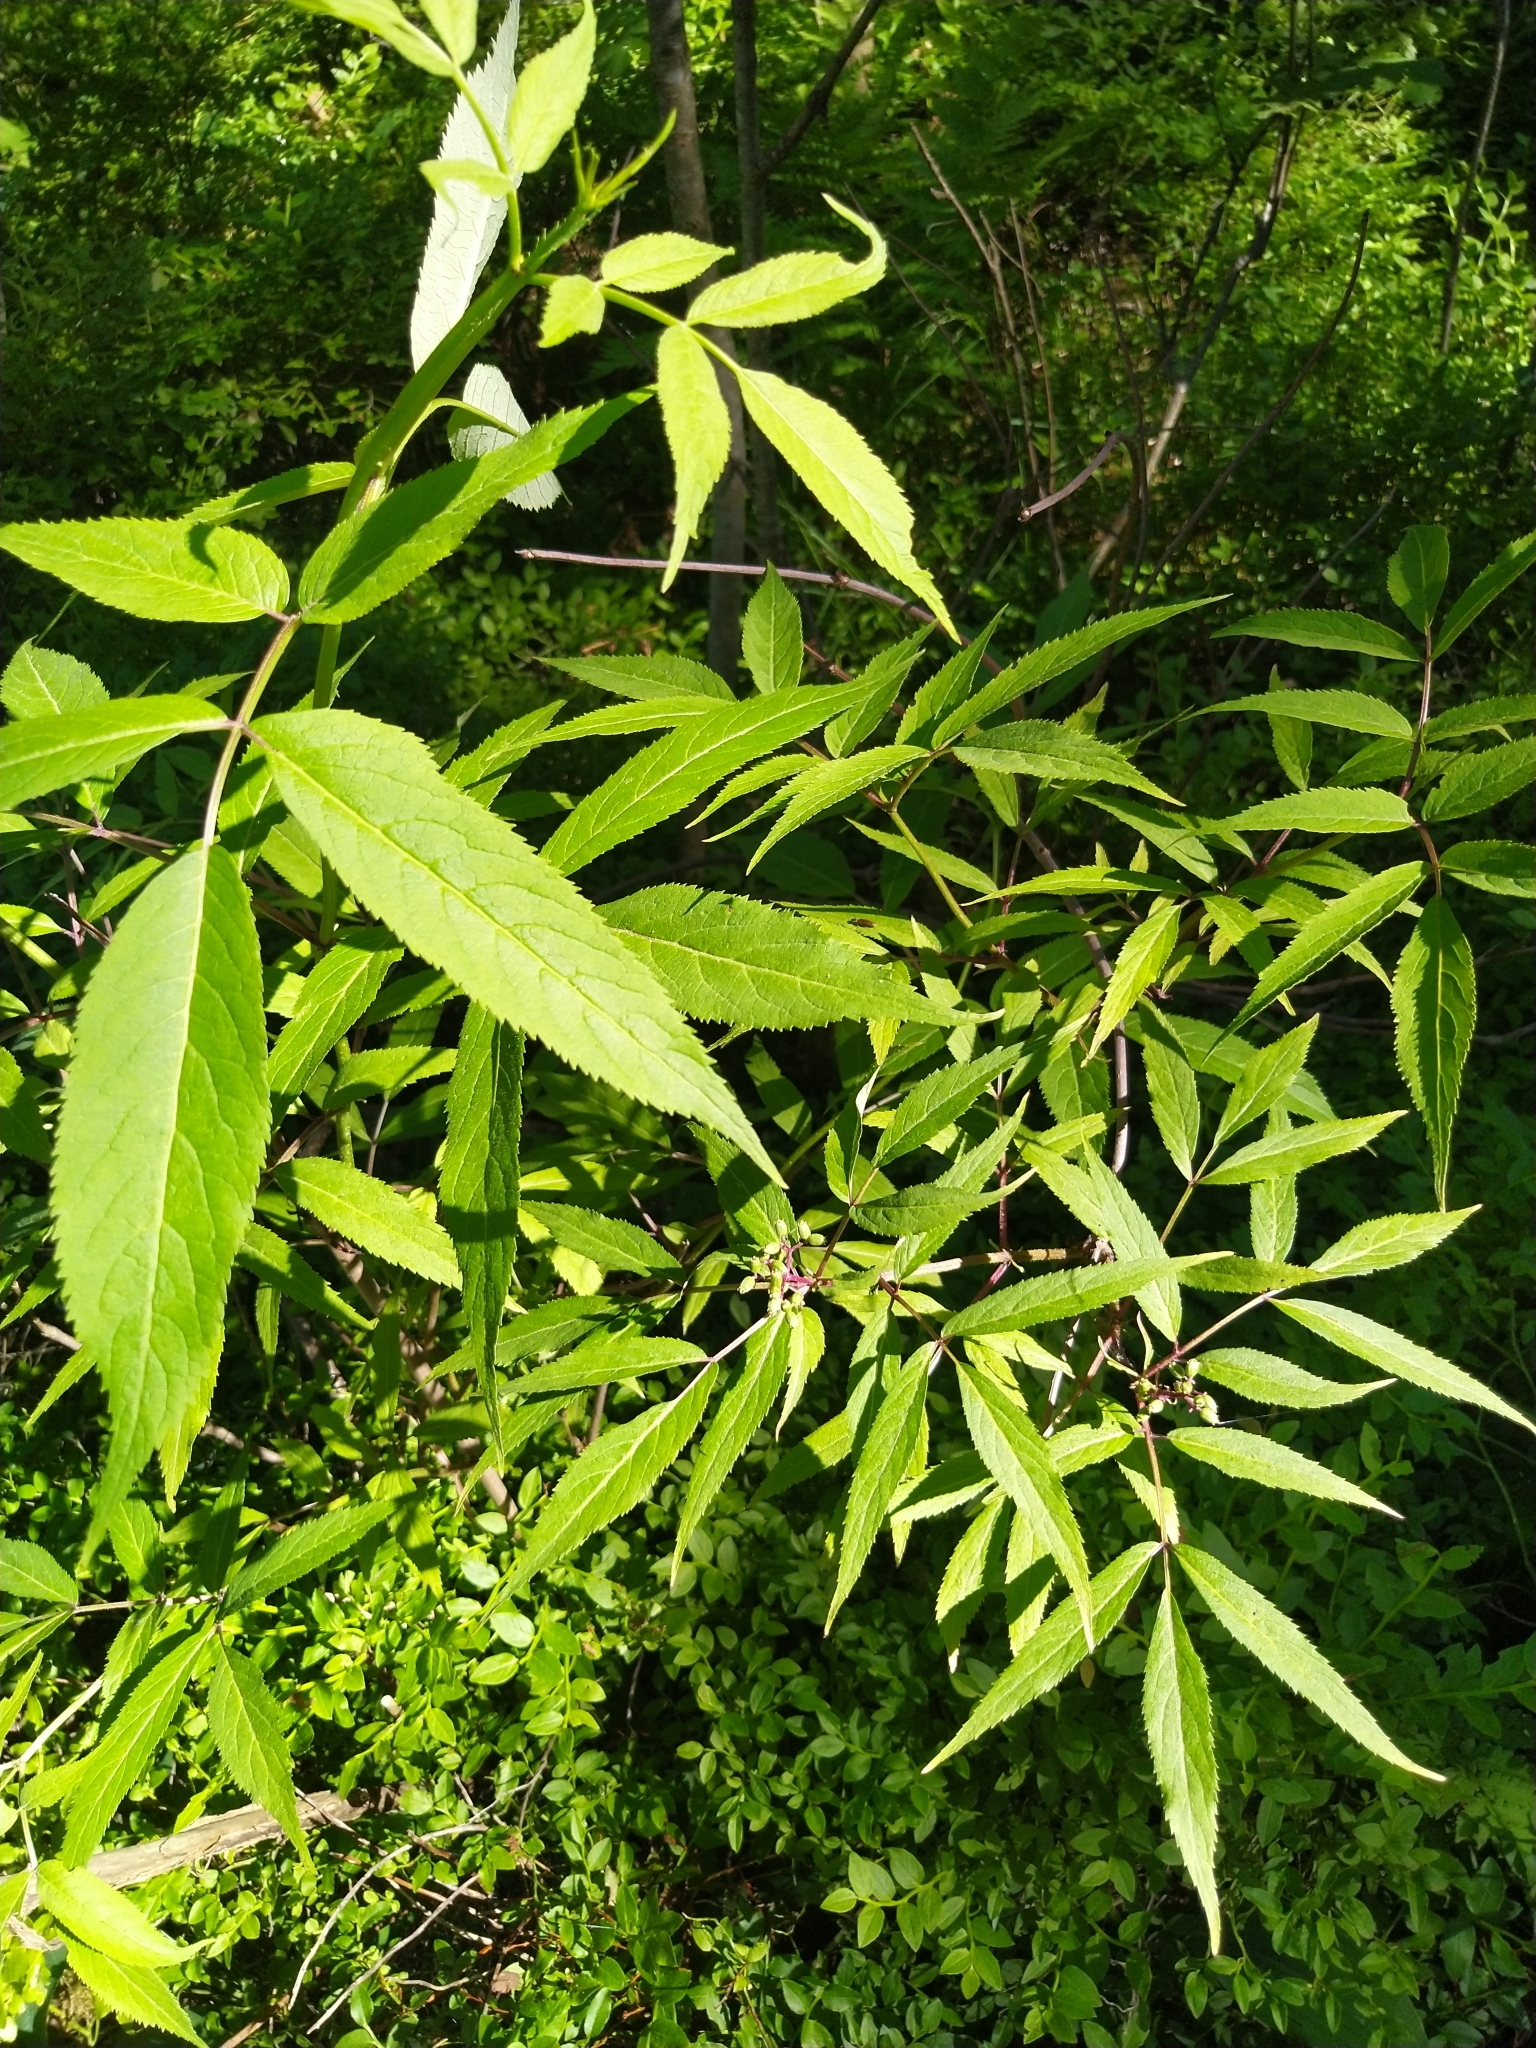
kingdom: Plantae
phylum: Tracheophyta
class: Magnoliopsida
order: Dipsacales
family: Viburnaceae
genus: Sambucus
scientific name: Sambucus racemosa
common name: Red-berried elder
